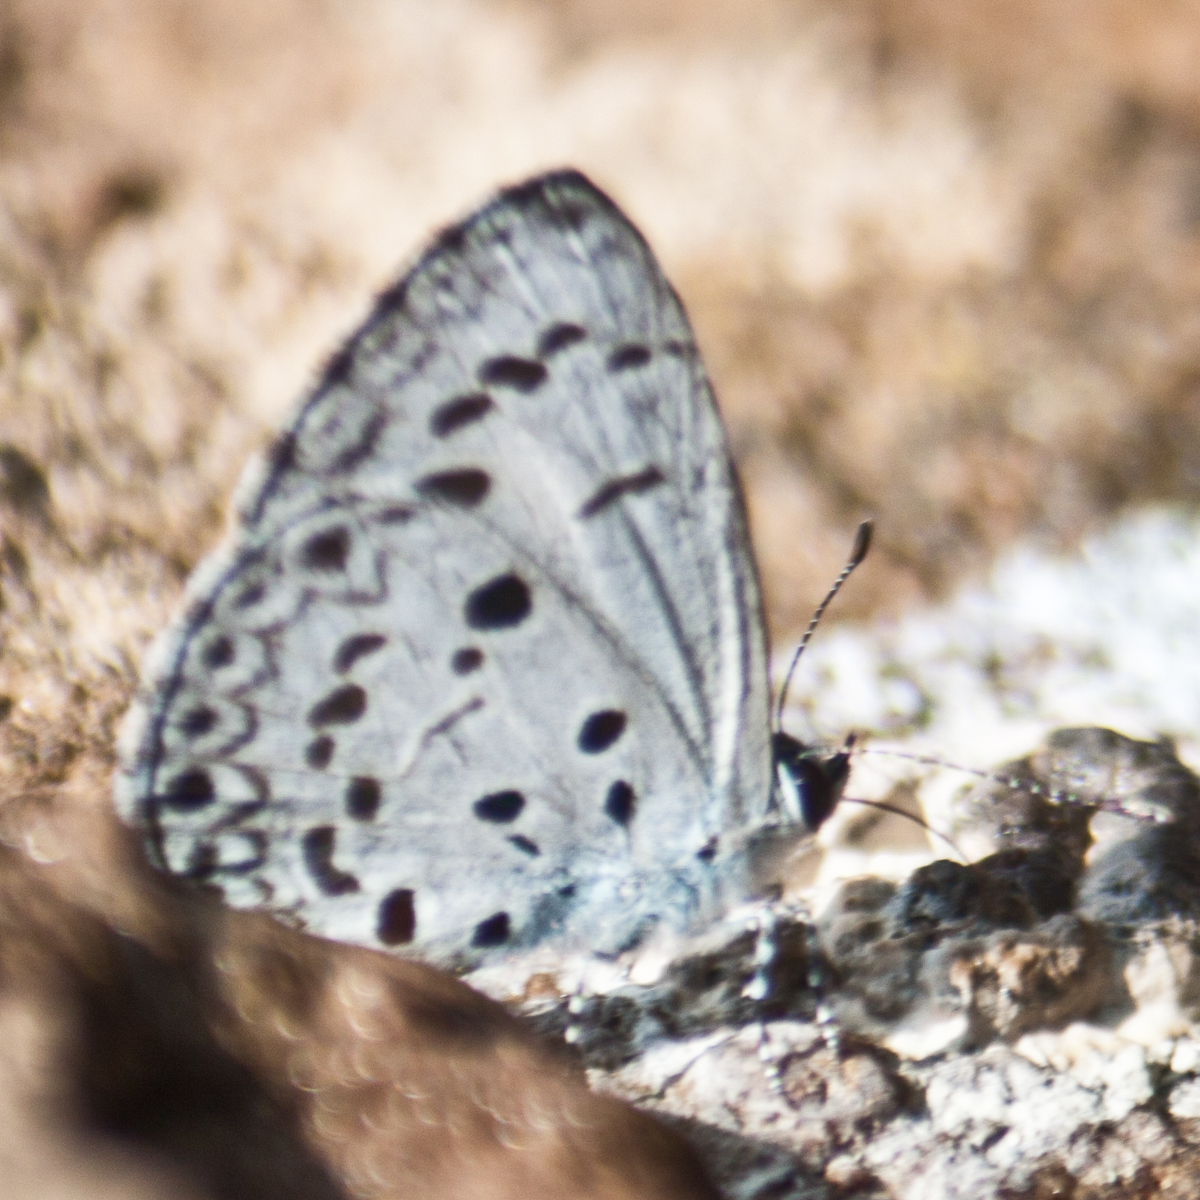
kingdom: Animalia
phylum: Arthropoda
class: Insecta
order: Lepidoptera
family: Lycaenidae
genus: Acytolepis
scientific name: Acytolepis puspa
